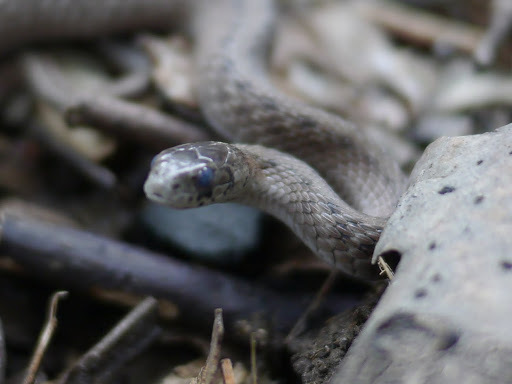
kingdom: Animalia
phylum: Chordata
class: Squamata
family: Colubridae
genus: Storeria
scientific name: Storeria dekayi
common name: (dekay’s) brown snake
